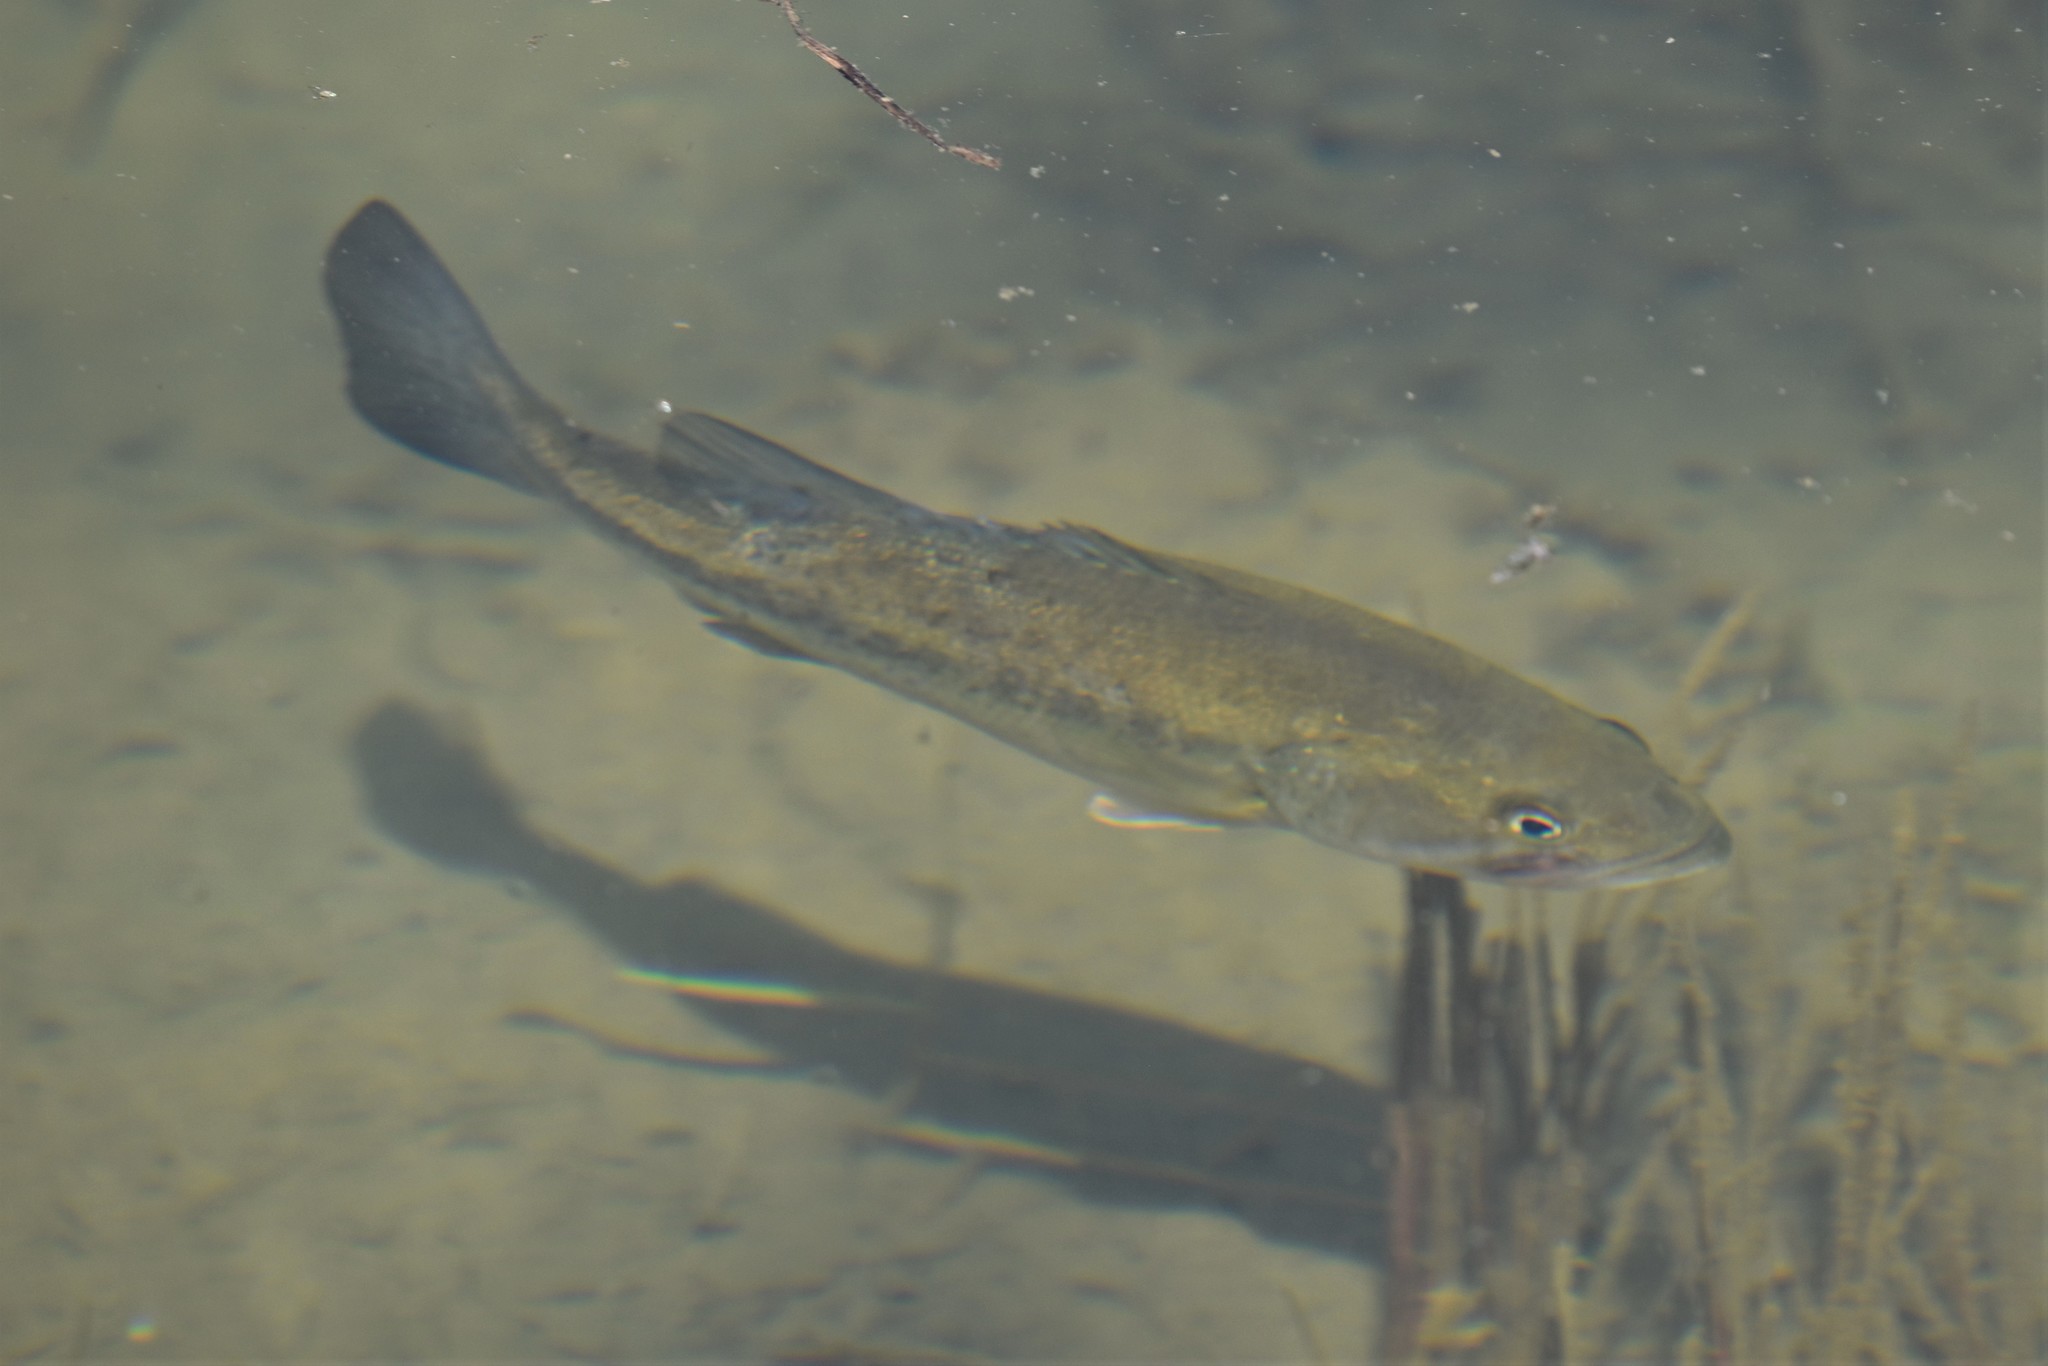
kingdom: Animalia
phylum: Chordata
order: Perciformes
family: Centrarchidae
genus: Micropterus
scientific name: Micropterus
